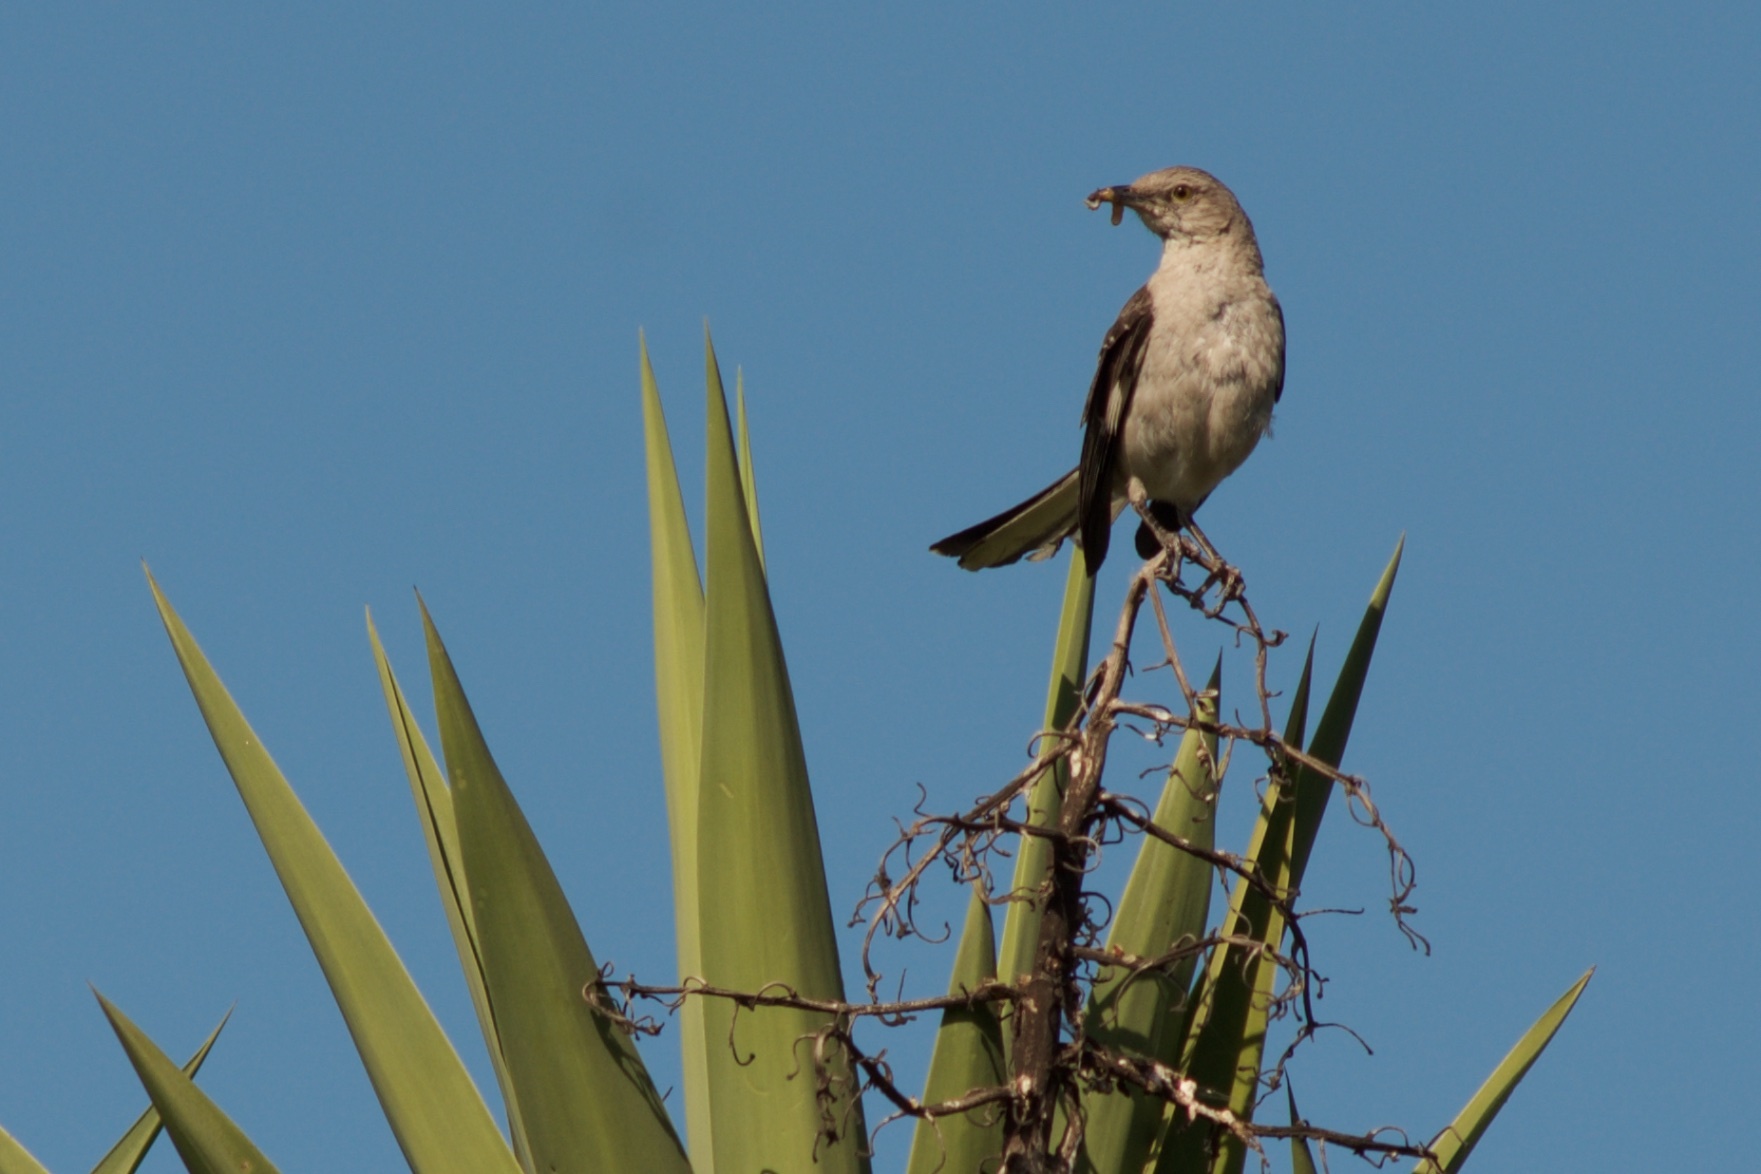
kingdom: Animalia
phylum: Chordata
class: Aves
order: Passeriformes
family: Mimidae
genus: Mimus
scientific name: Mimus polyglottos
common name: Northern mockingbird
